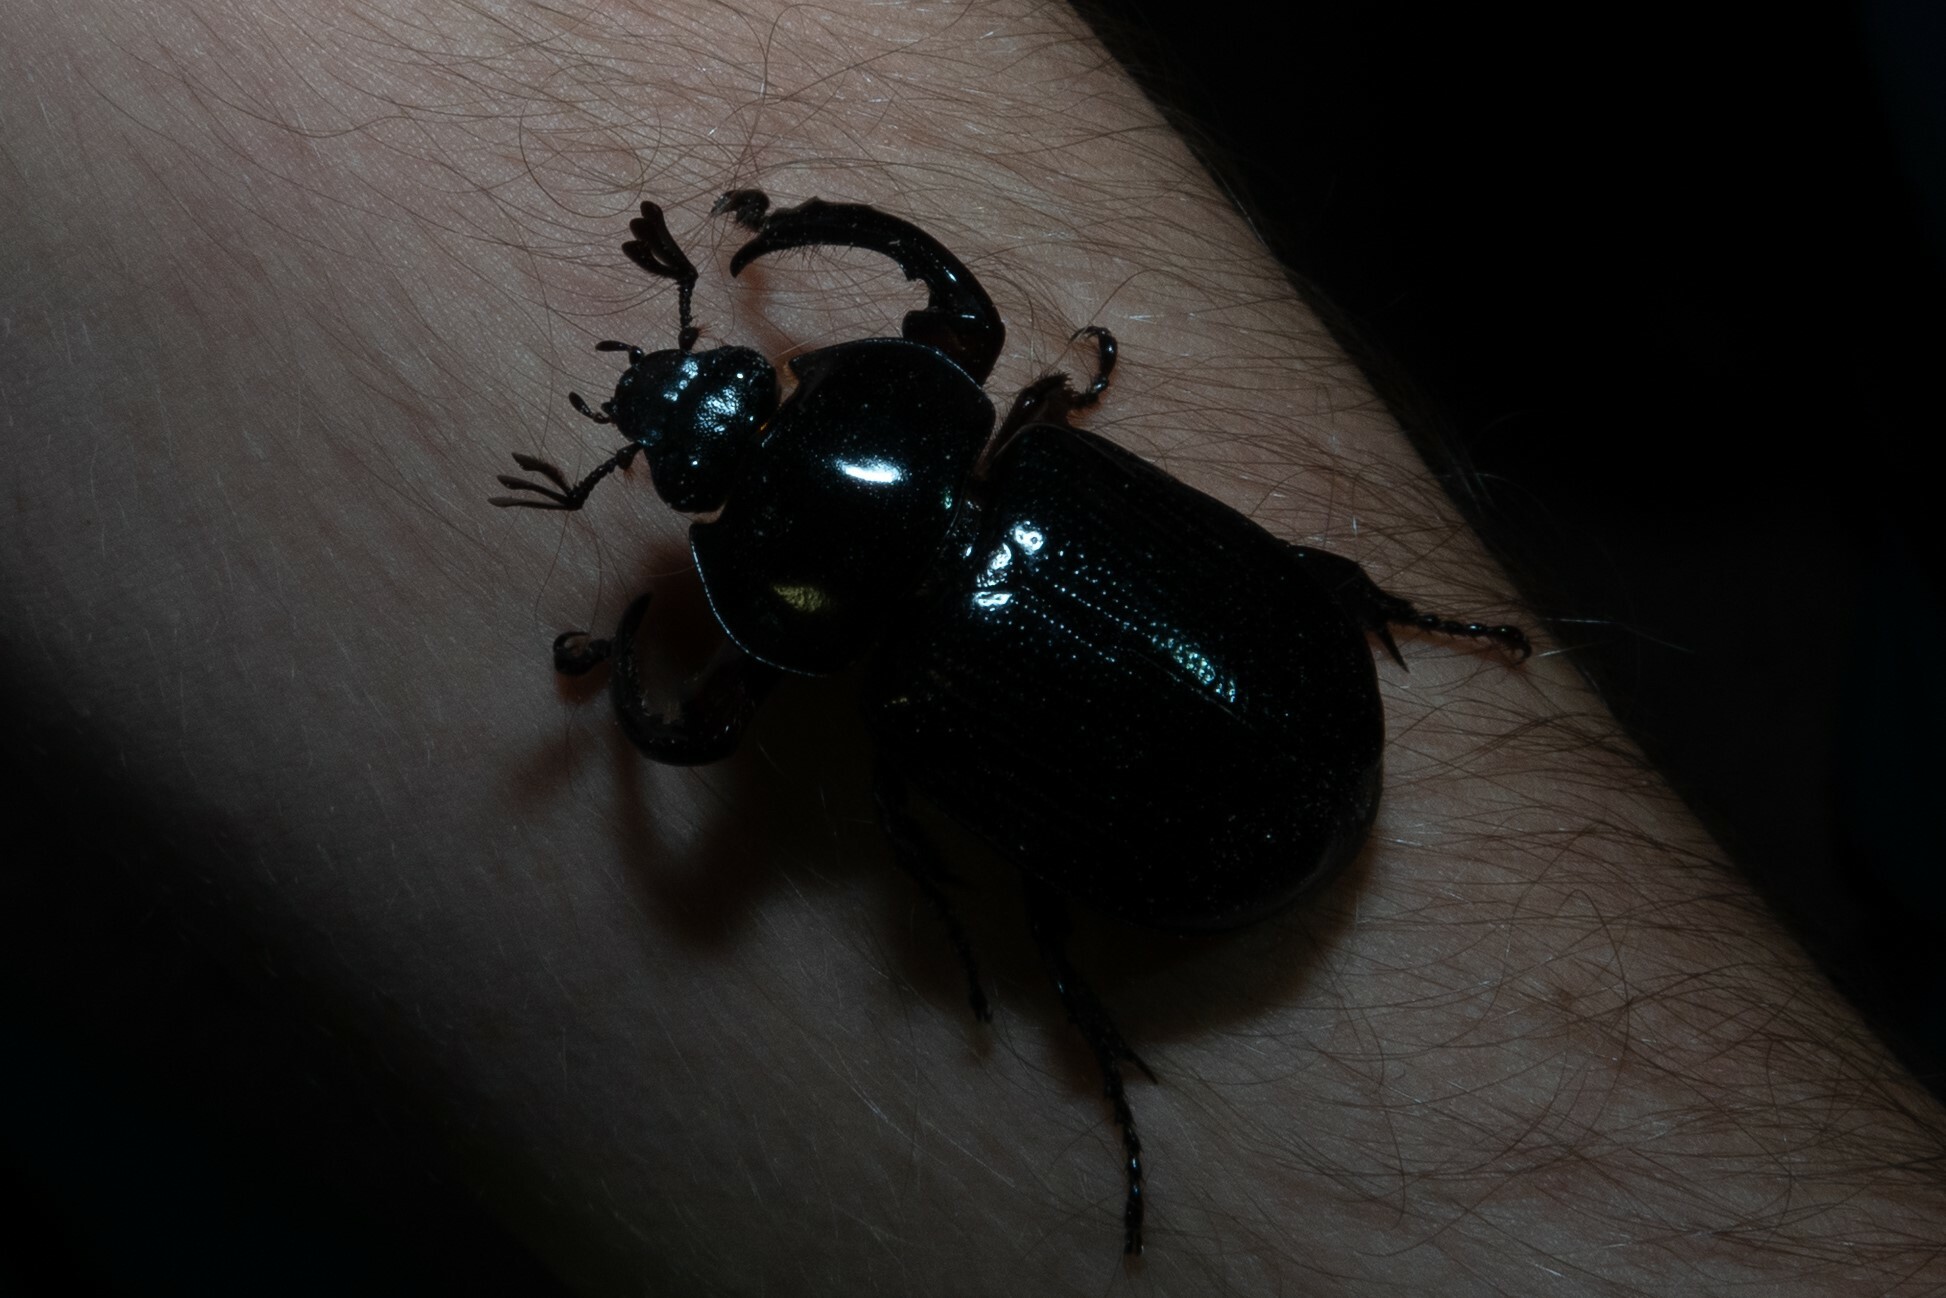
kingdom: Animalia
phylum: Arthropoda
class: Insecta
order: Coleoptera
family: Scarabaeidae
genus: Harposceles
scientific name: Harposceles paradoxus
